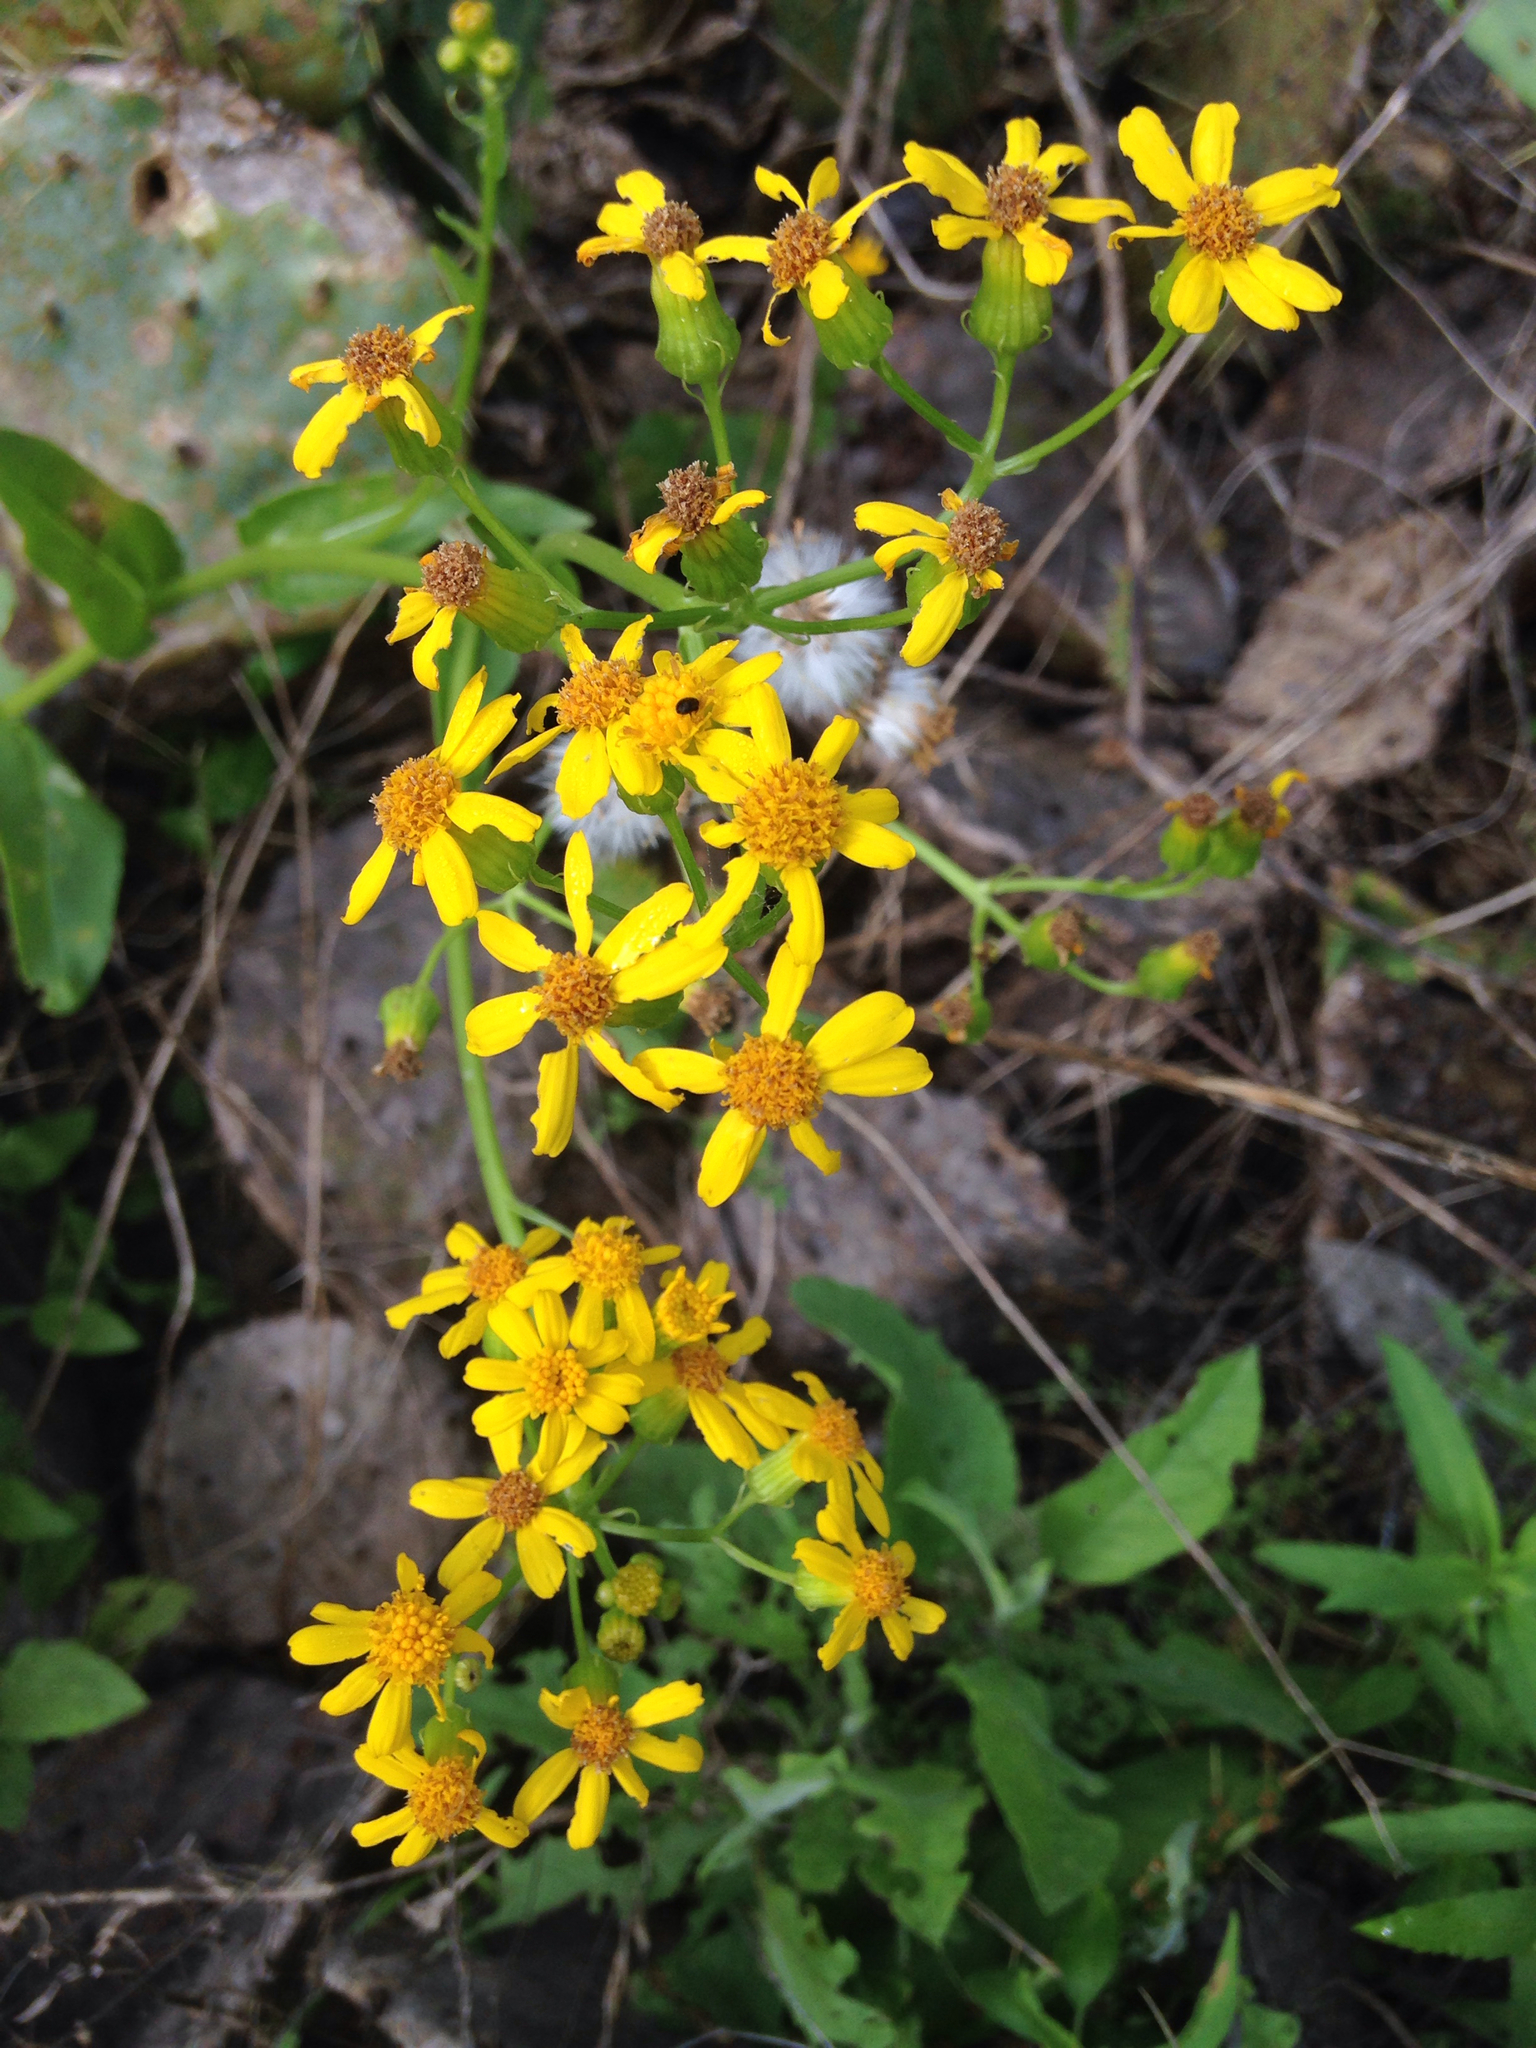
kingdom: Plantae
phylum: Tracheophyta
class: Magnoliopsida
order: Asterales
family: Asteraceae
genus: Senecio
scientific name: Senecio ampullaceus
